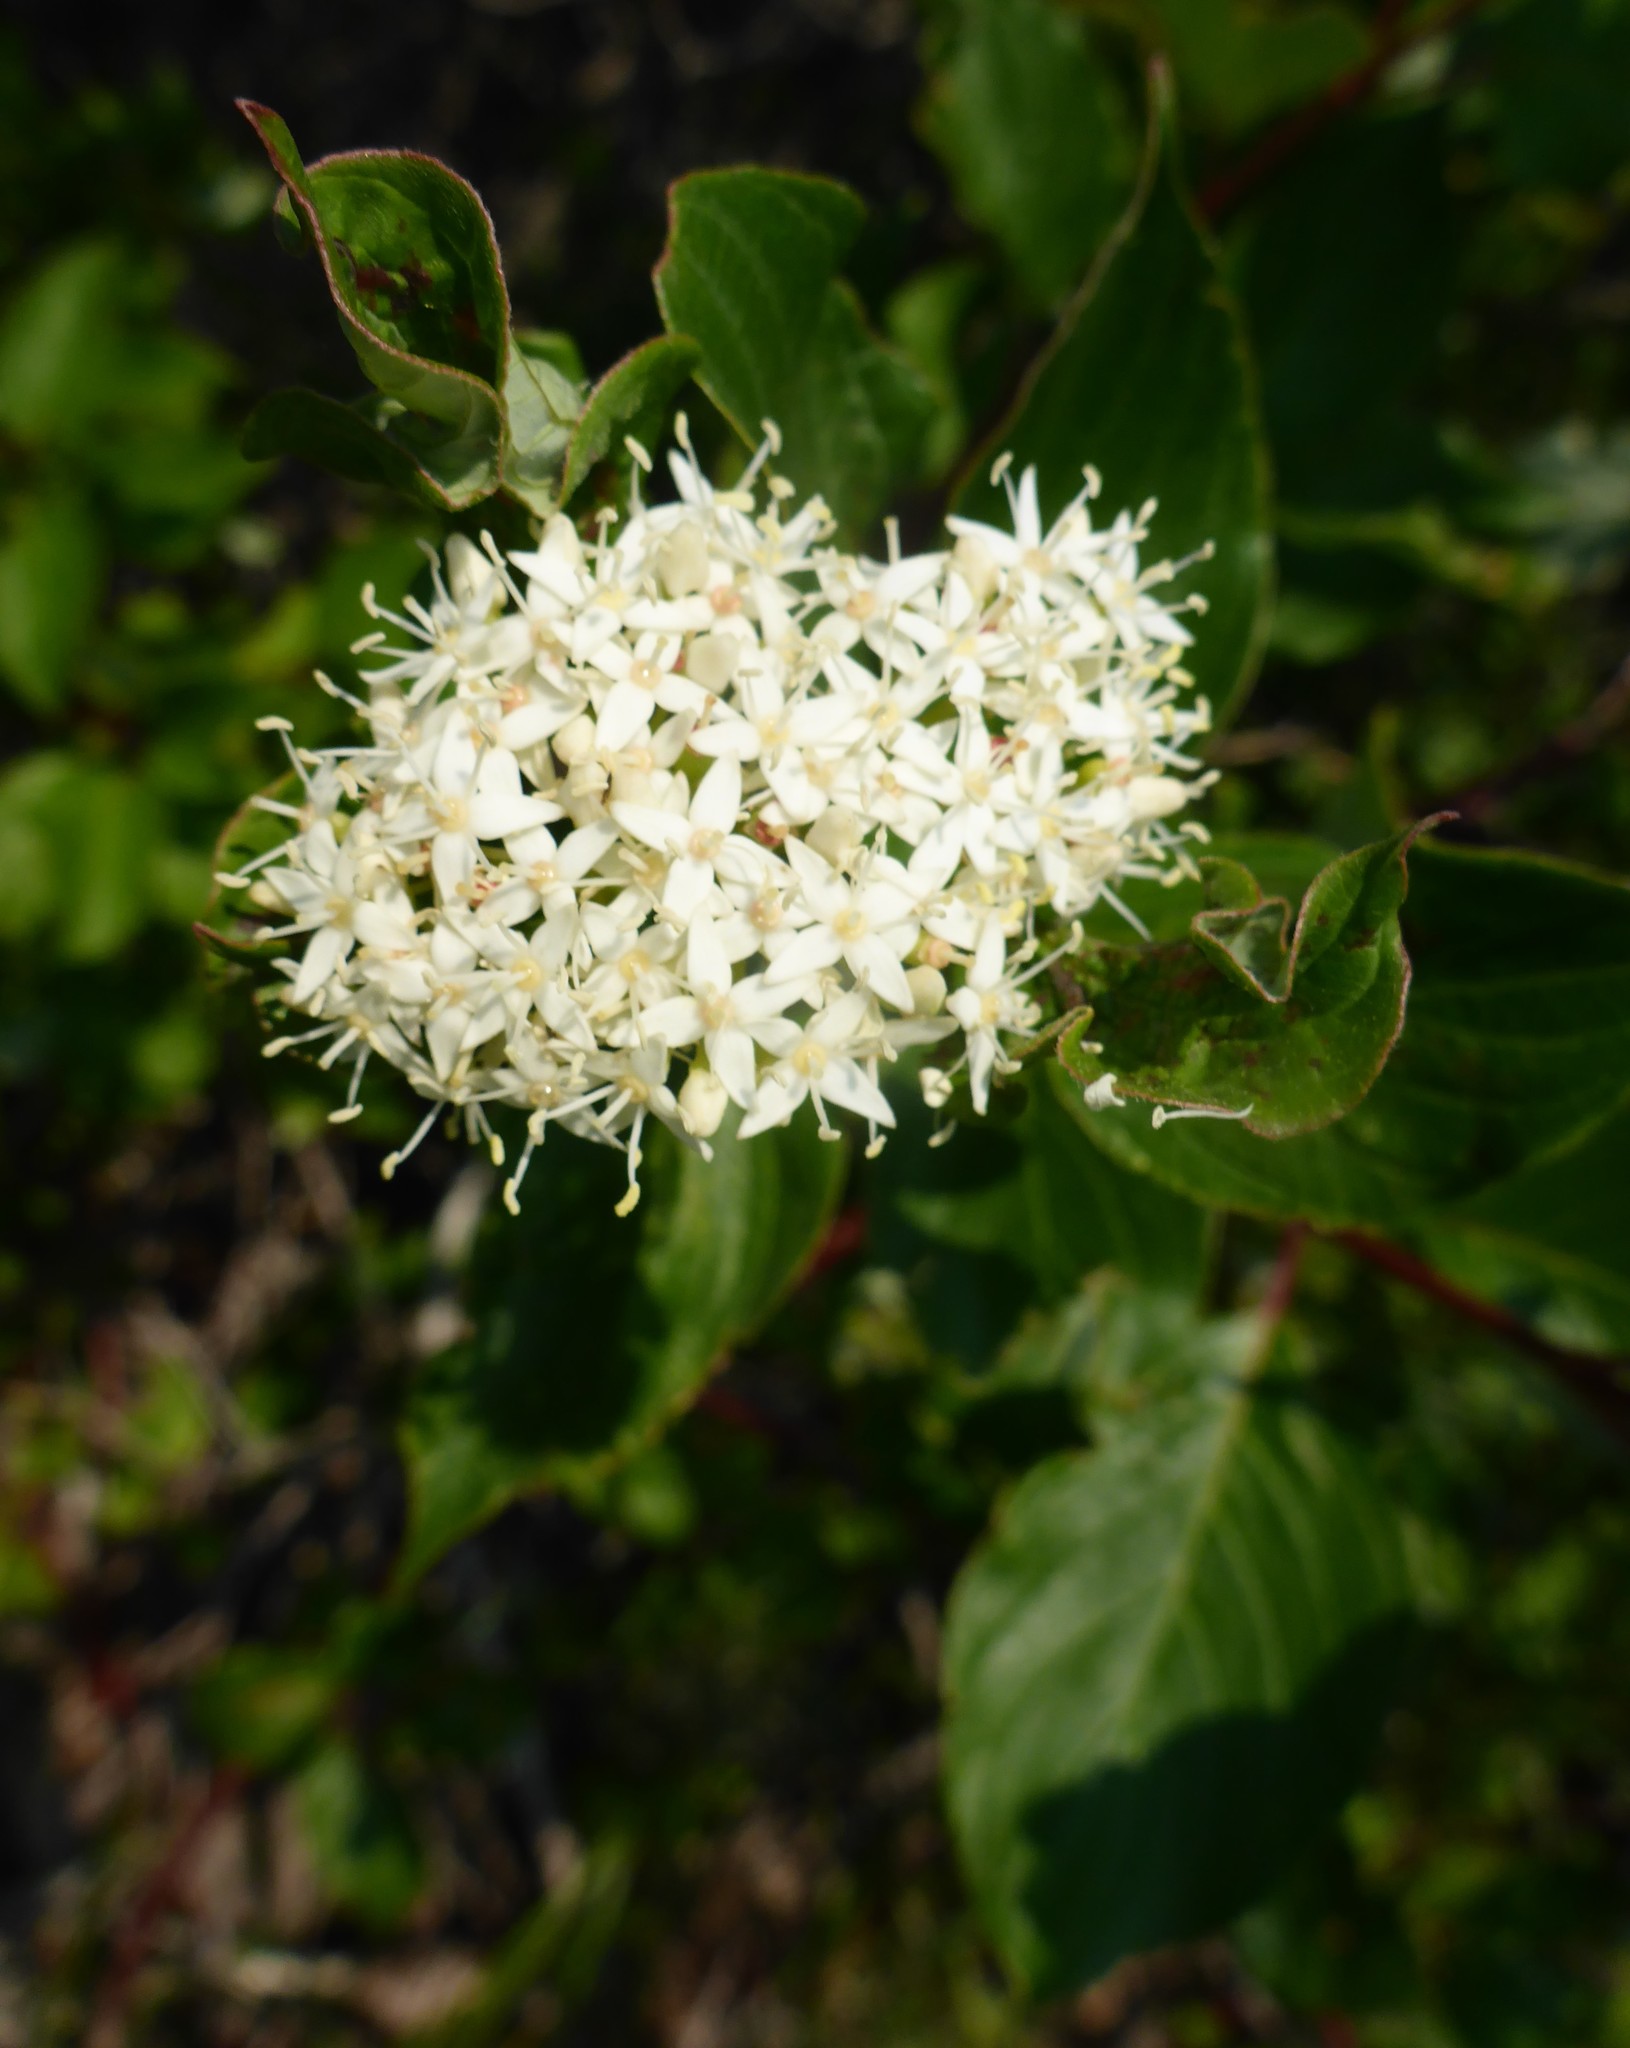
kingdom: Plantae
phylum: Tracheophyta
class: Magnoliopsida
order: Cornales
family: Cornaceae
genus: Cornus
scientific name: Cornus sericea
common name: Red-osier dogwood
